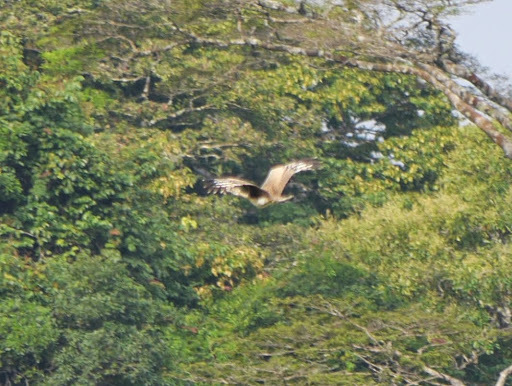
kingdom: Animalia
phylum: Chordata
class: Aves
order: Otidiformes
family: Otididae
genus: Lissotis
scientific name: Lissotis melanogaster
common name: Black-bellied bustard
